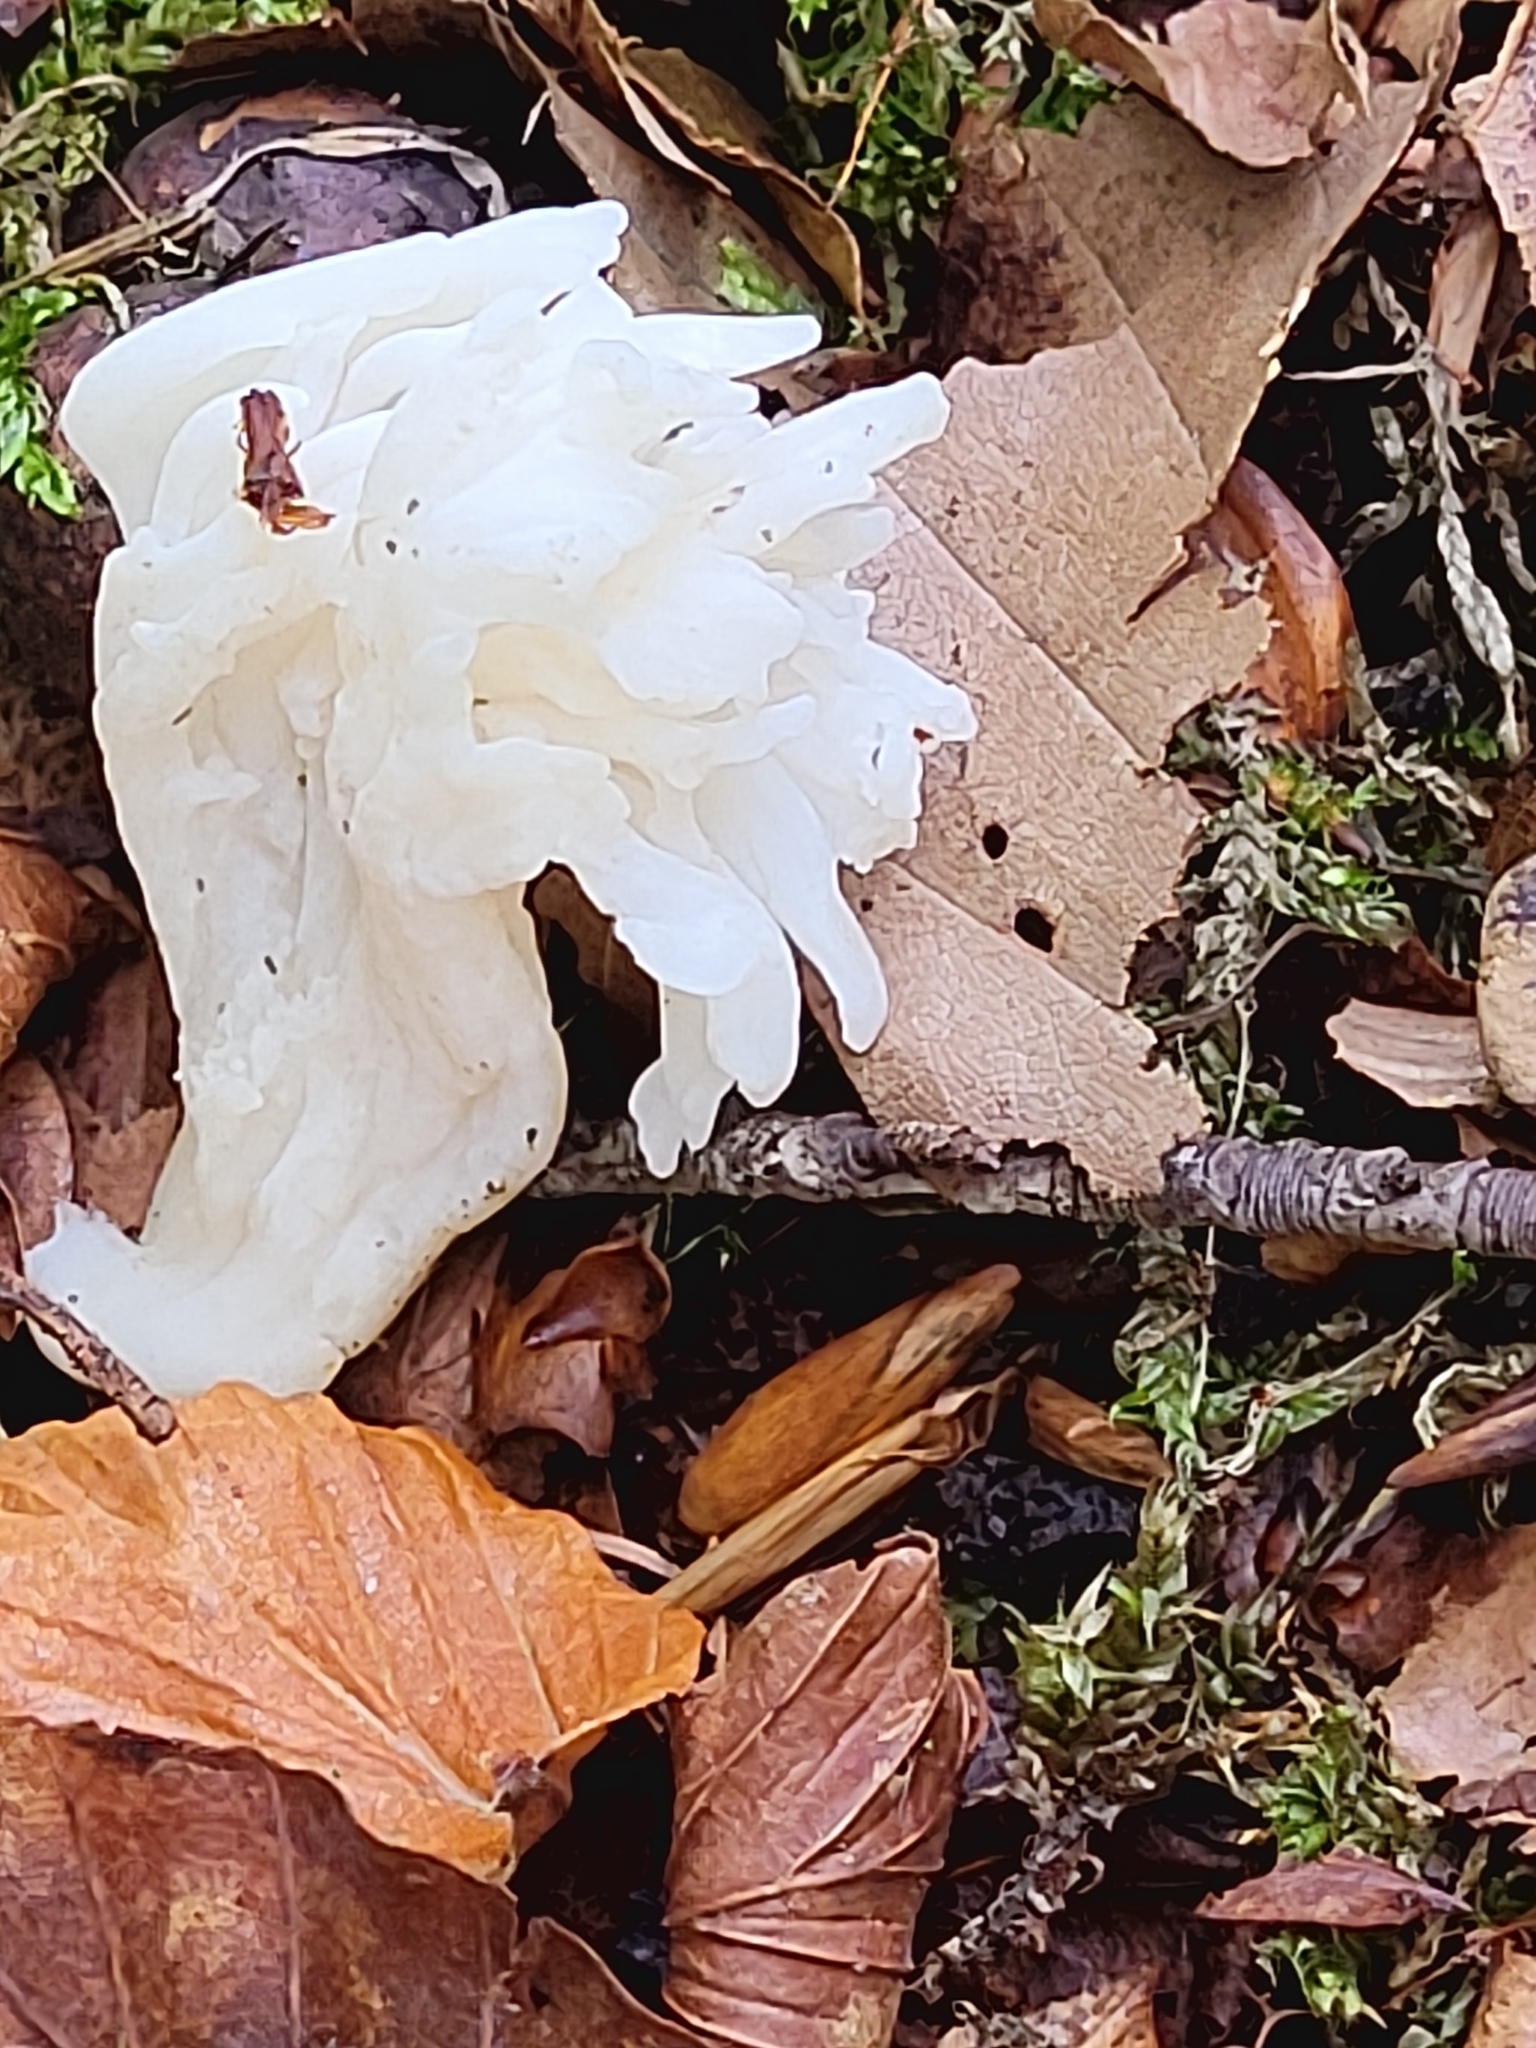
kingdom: Fungi
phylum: Basidiomycota
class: Agaricomycetes
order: Cantharellales
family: Hydnaceae
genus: Clavulina
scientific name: Clavulina rugosa
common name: Wrinkled club
